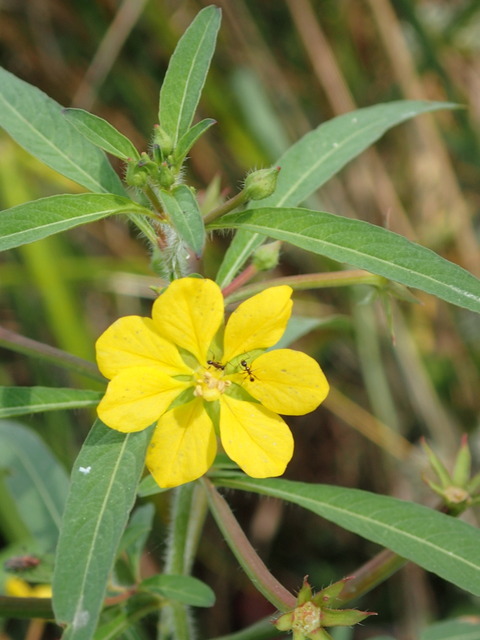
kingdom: Plantae
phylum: Tracheophyta
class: Magnoliopsida
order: Myrtales
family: Onagraceae
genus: Ludwigia
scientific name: Ludwigia leptocarpa
